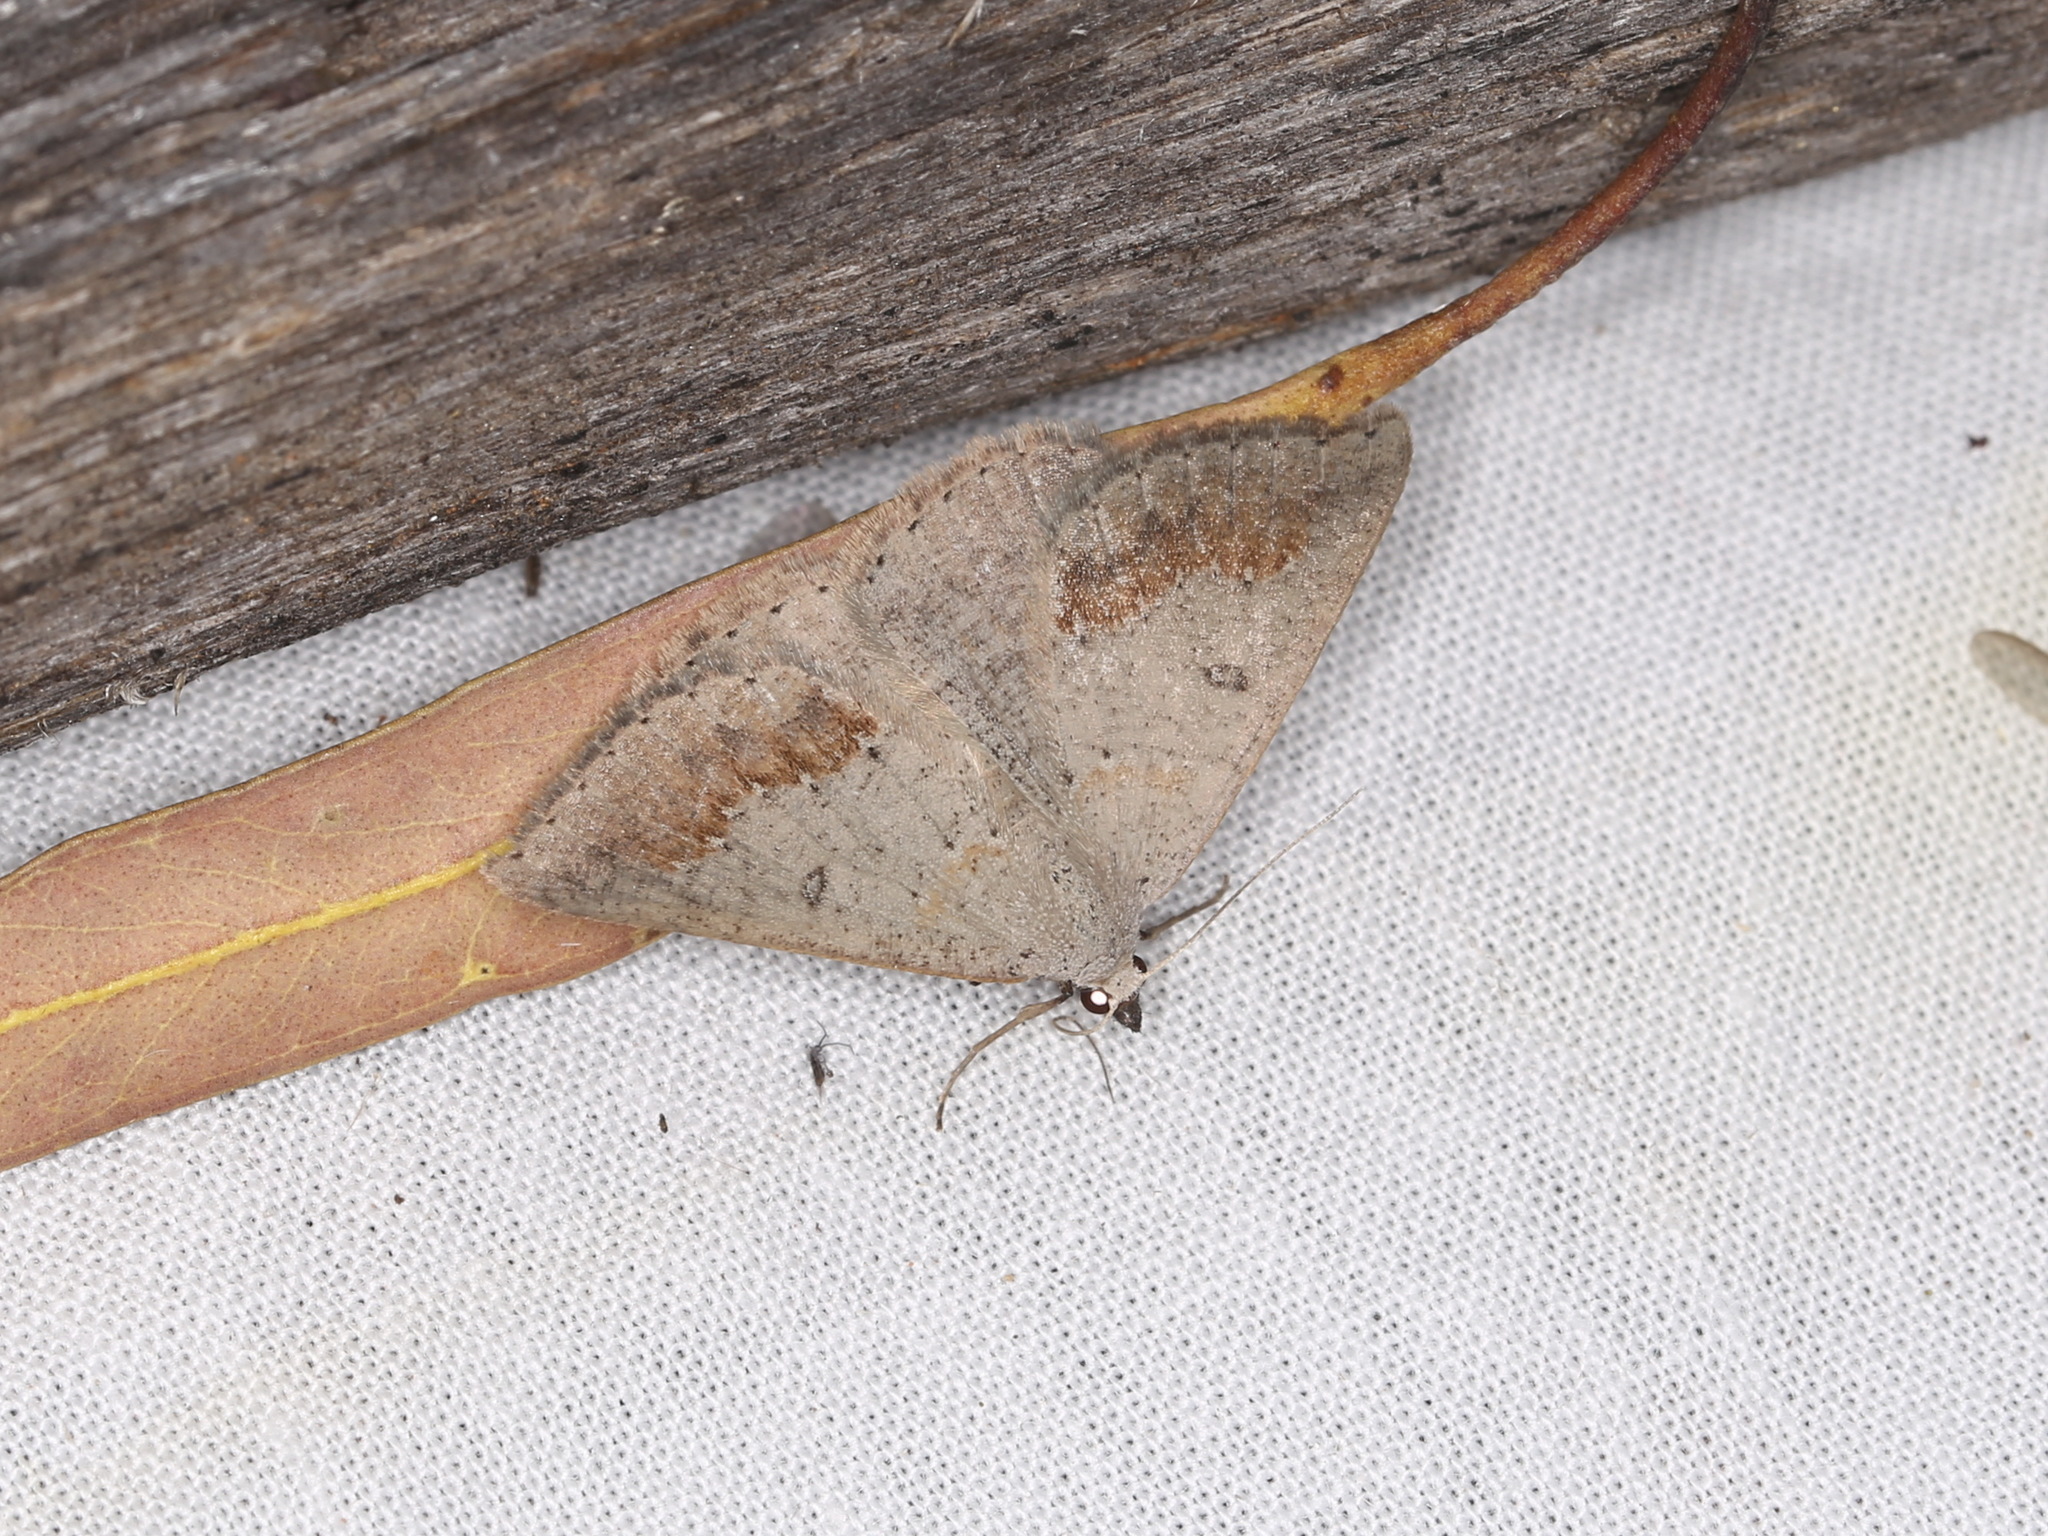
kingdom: Animalia
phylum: Arthropoda
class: Insecta
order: Lepidoptera
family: Geometridae
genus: Nearcha
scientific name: Nearcha dasyzona
